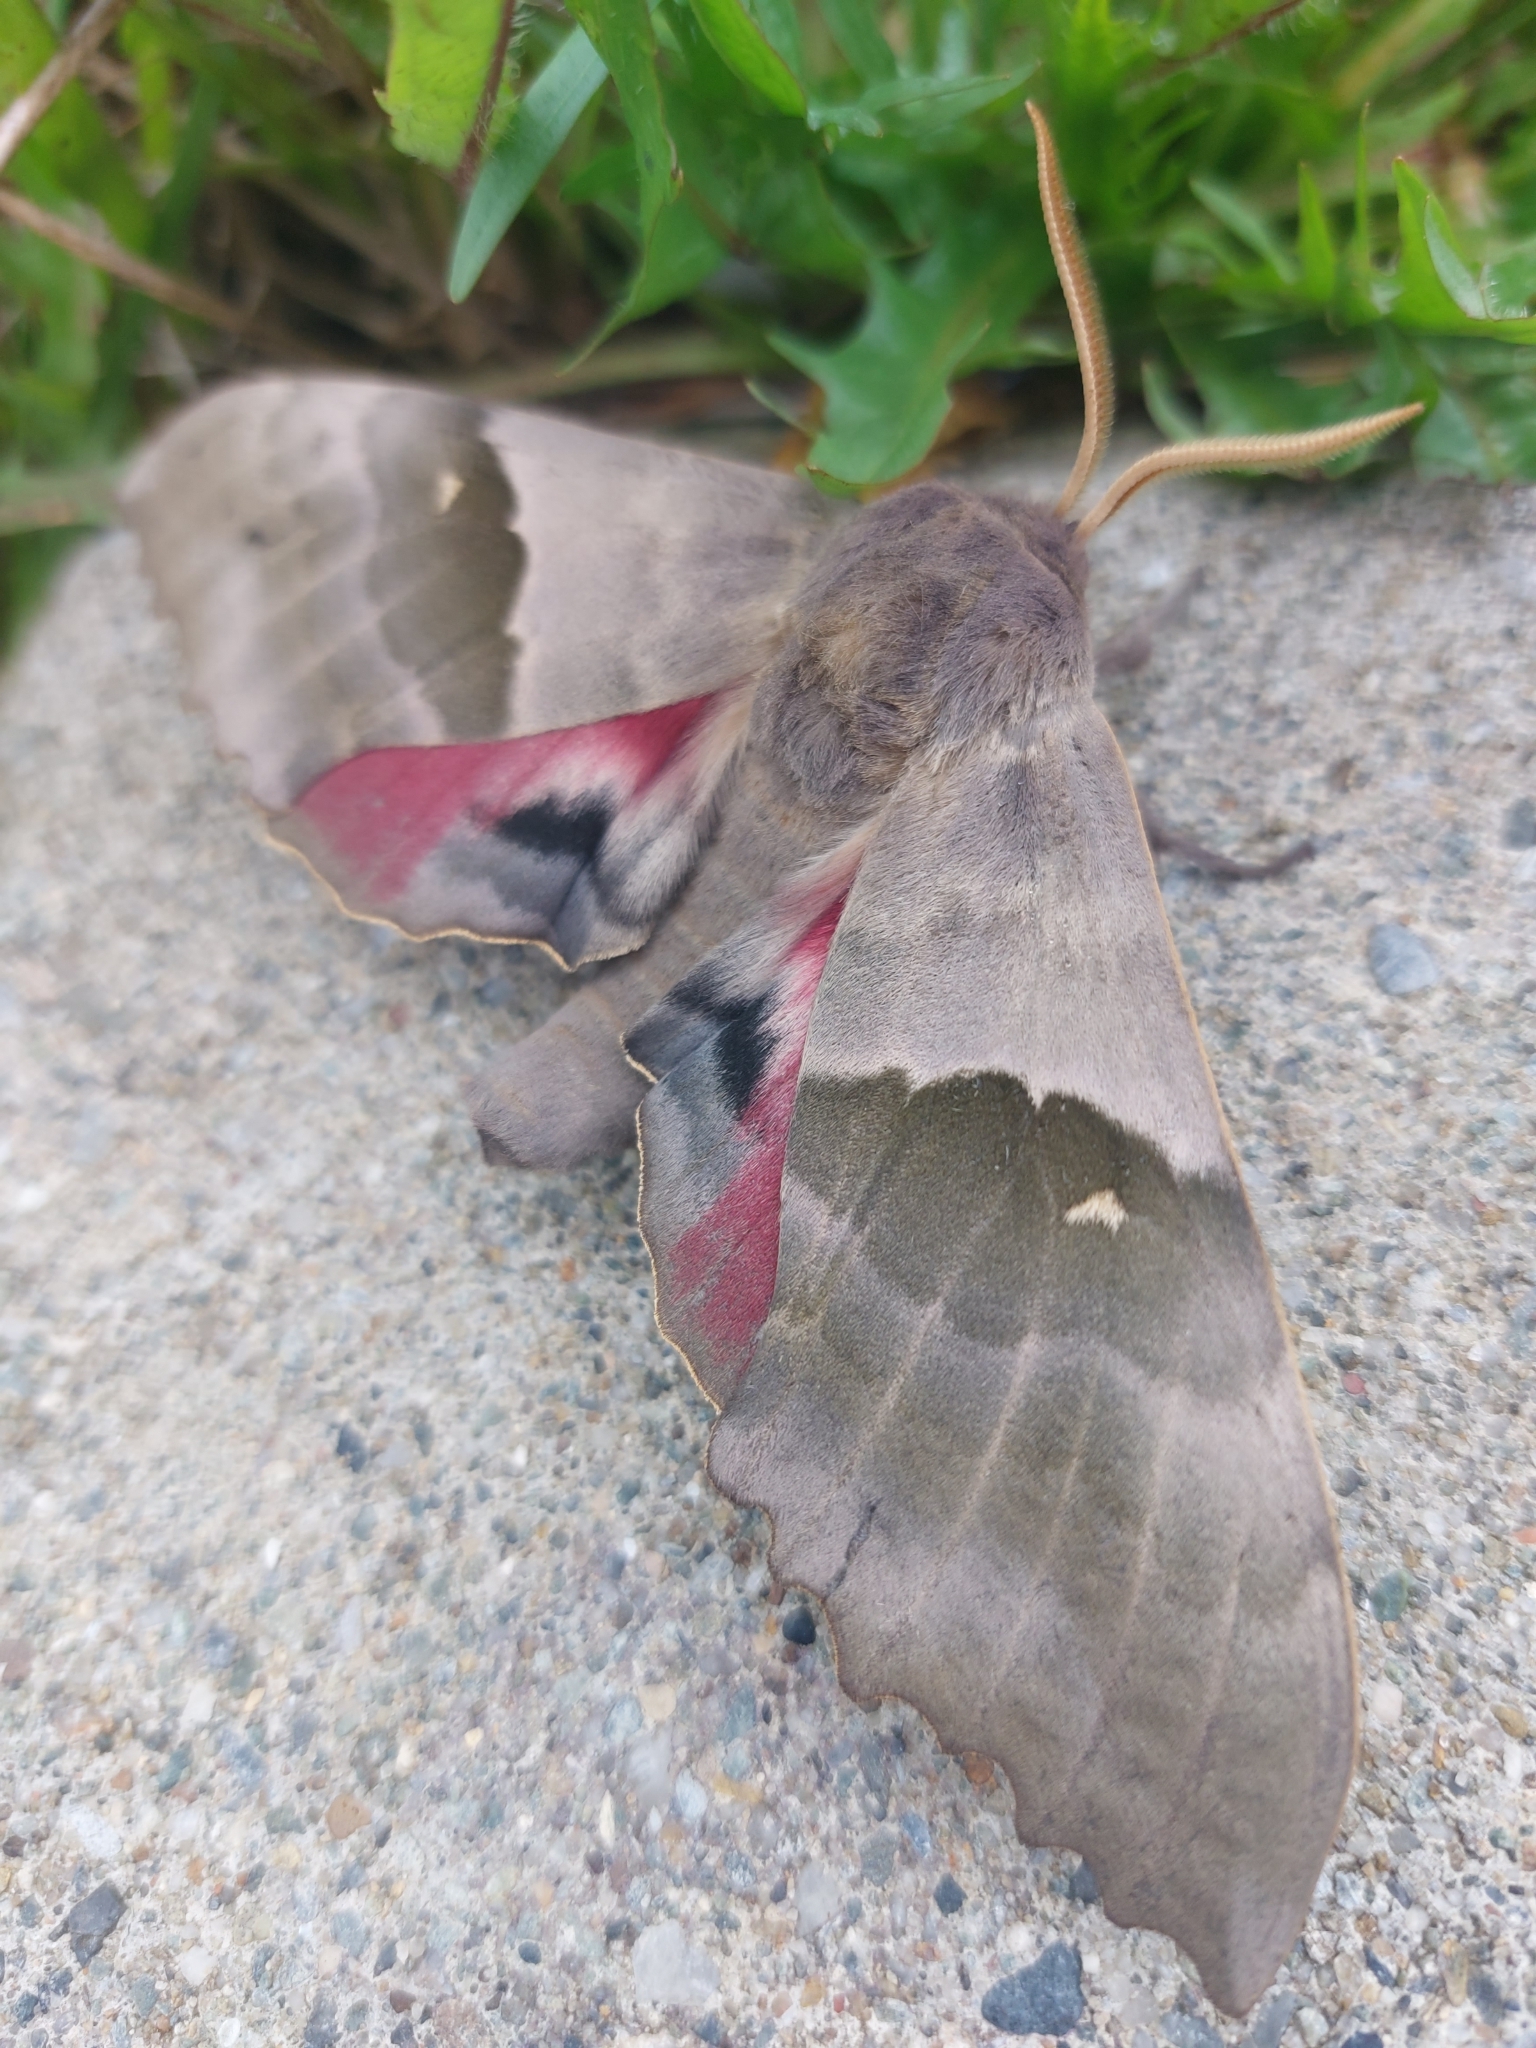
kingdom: Animalia
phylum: Arthropoda
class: Insecta
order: Lepidoptera
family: Sphingidae
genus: Pachysphinx
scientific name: Pachysphinx modesta
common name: Big poplar sphinx
